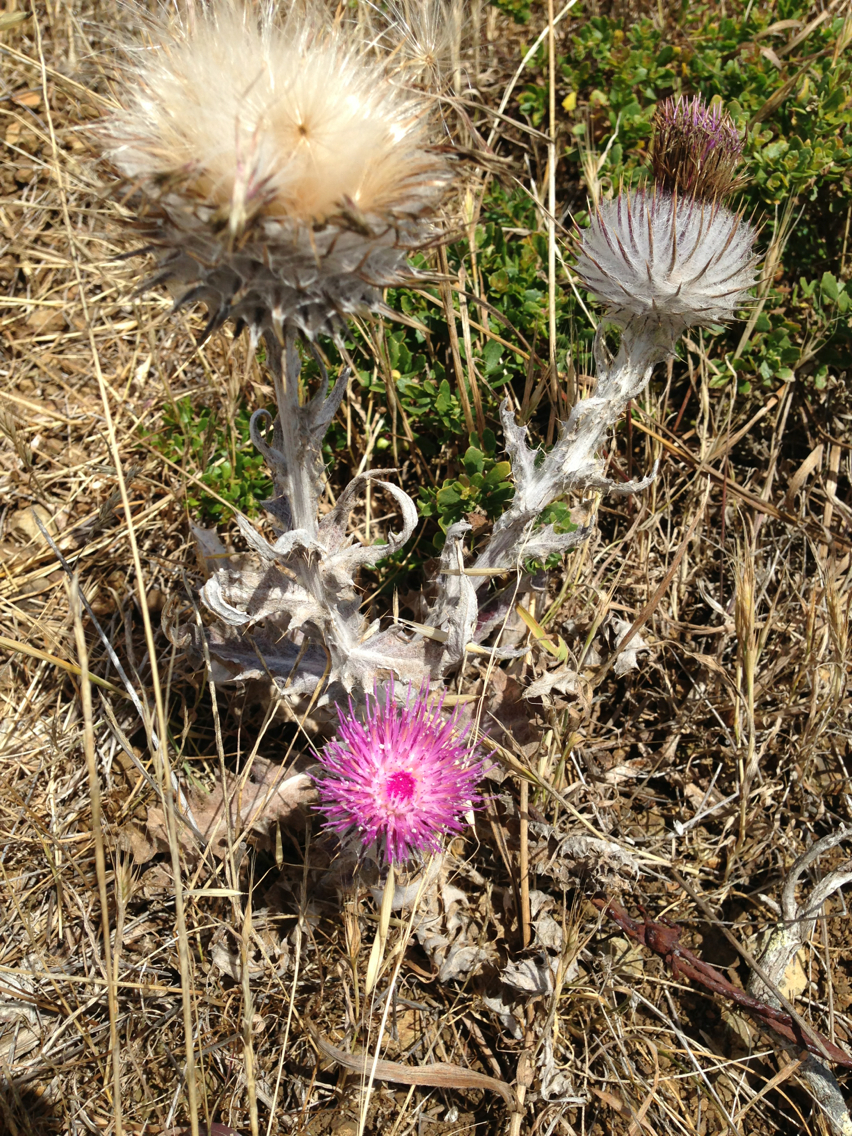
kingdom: Plantae
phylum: Tracheophyta
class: Magnoliopsida
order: Asterales
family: Asteraceae
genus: Cirsium
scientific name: Cirsium occidentale
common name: Western thistle
